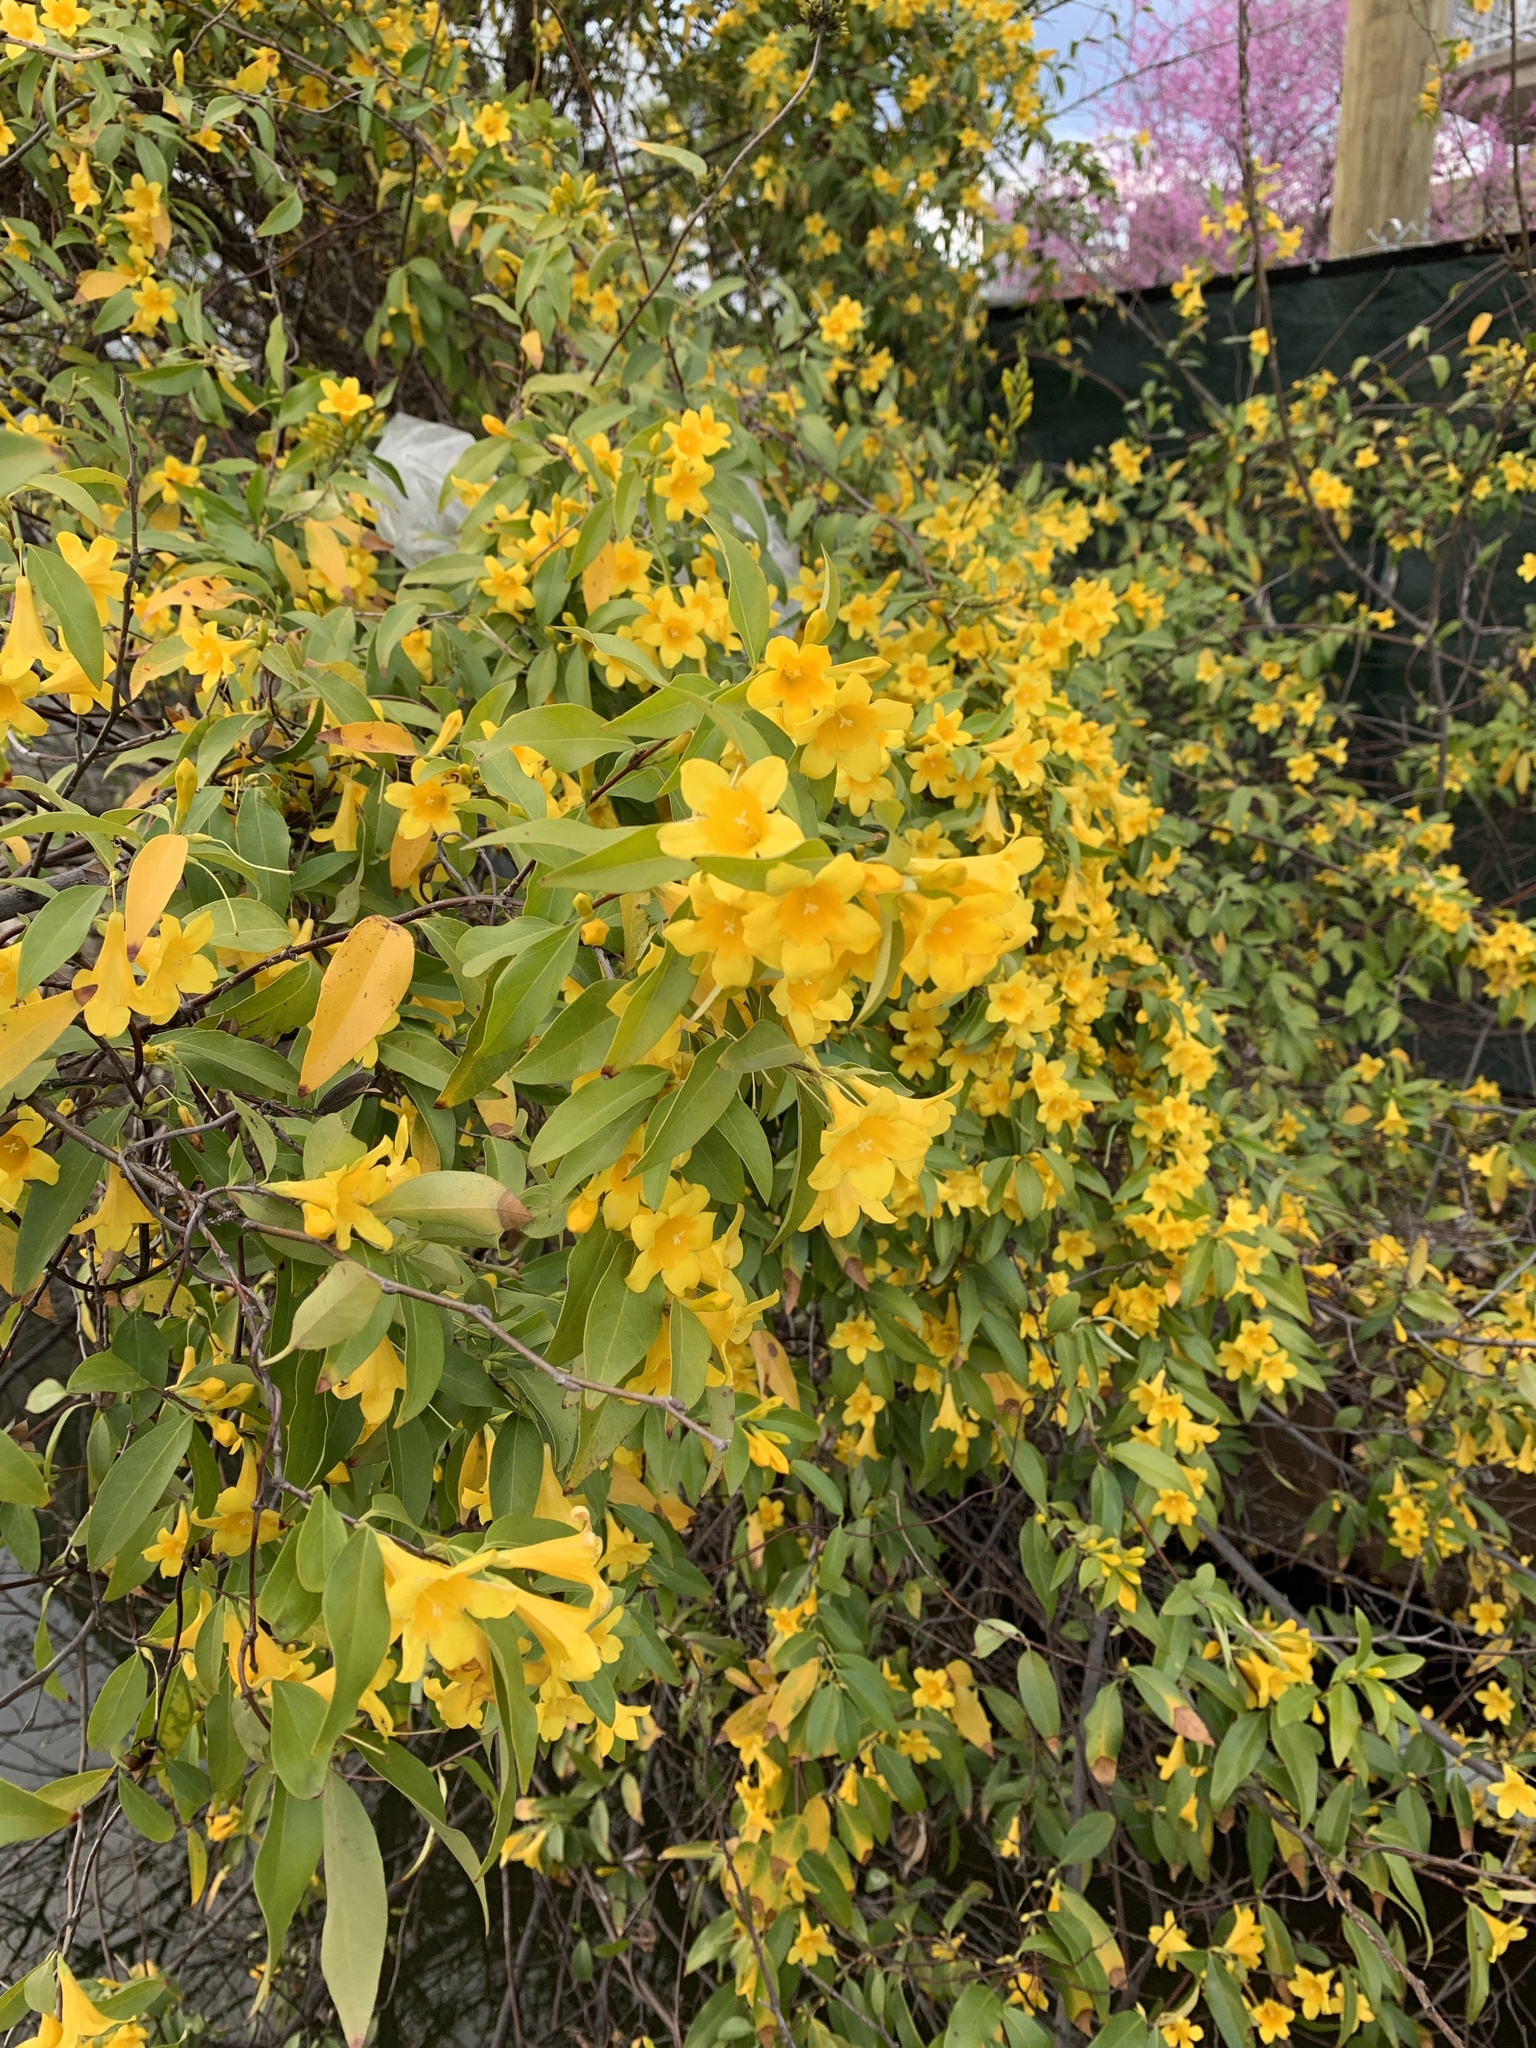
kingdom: Plantae
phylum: Tracheophyta
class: Magnoliopsida
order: Gentianales
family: Gelsemiaceae
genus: Gelsemium
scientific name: Gelsemium sempervirens
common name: Carolina-jasmine
